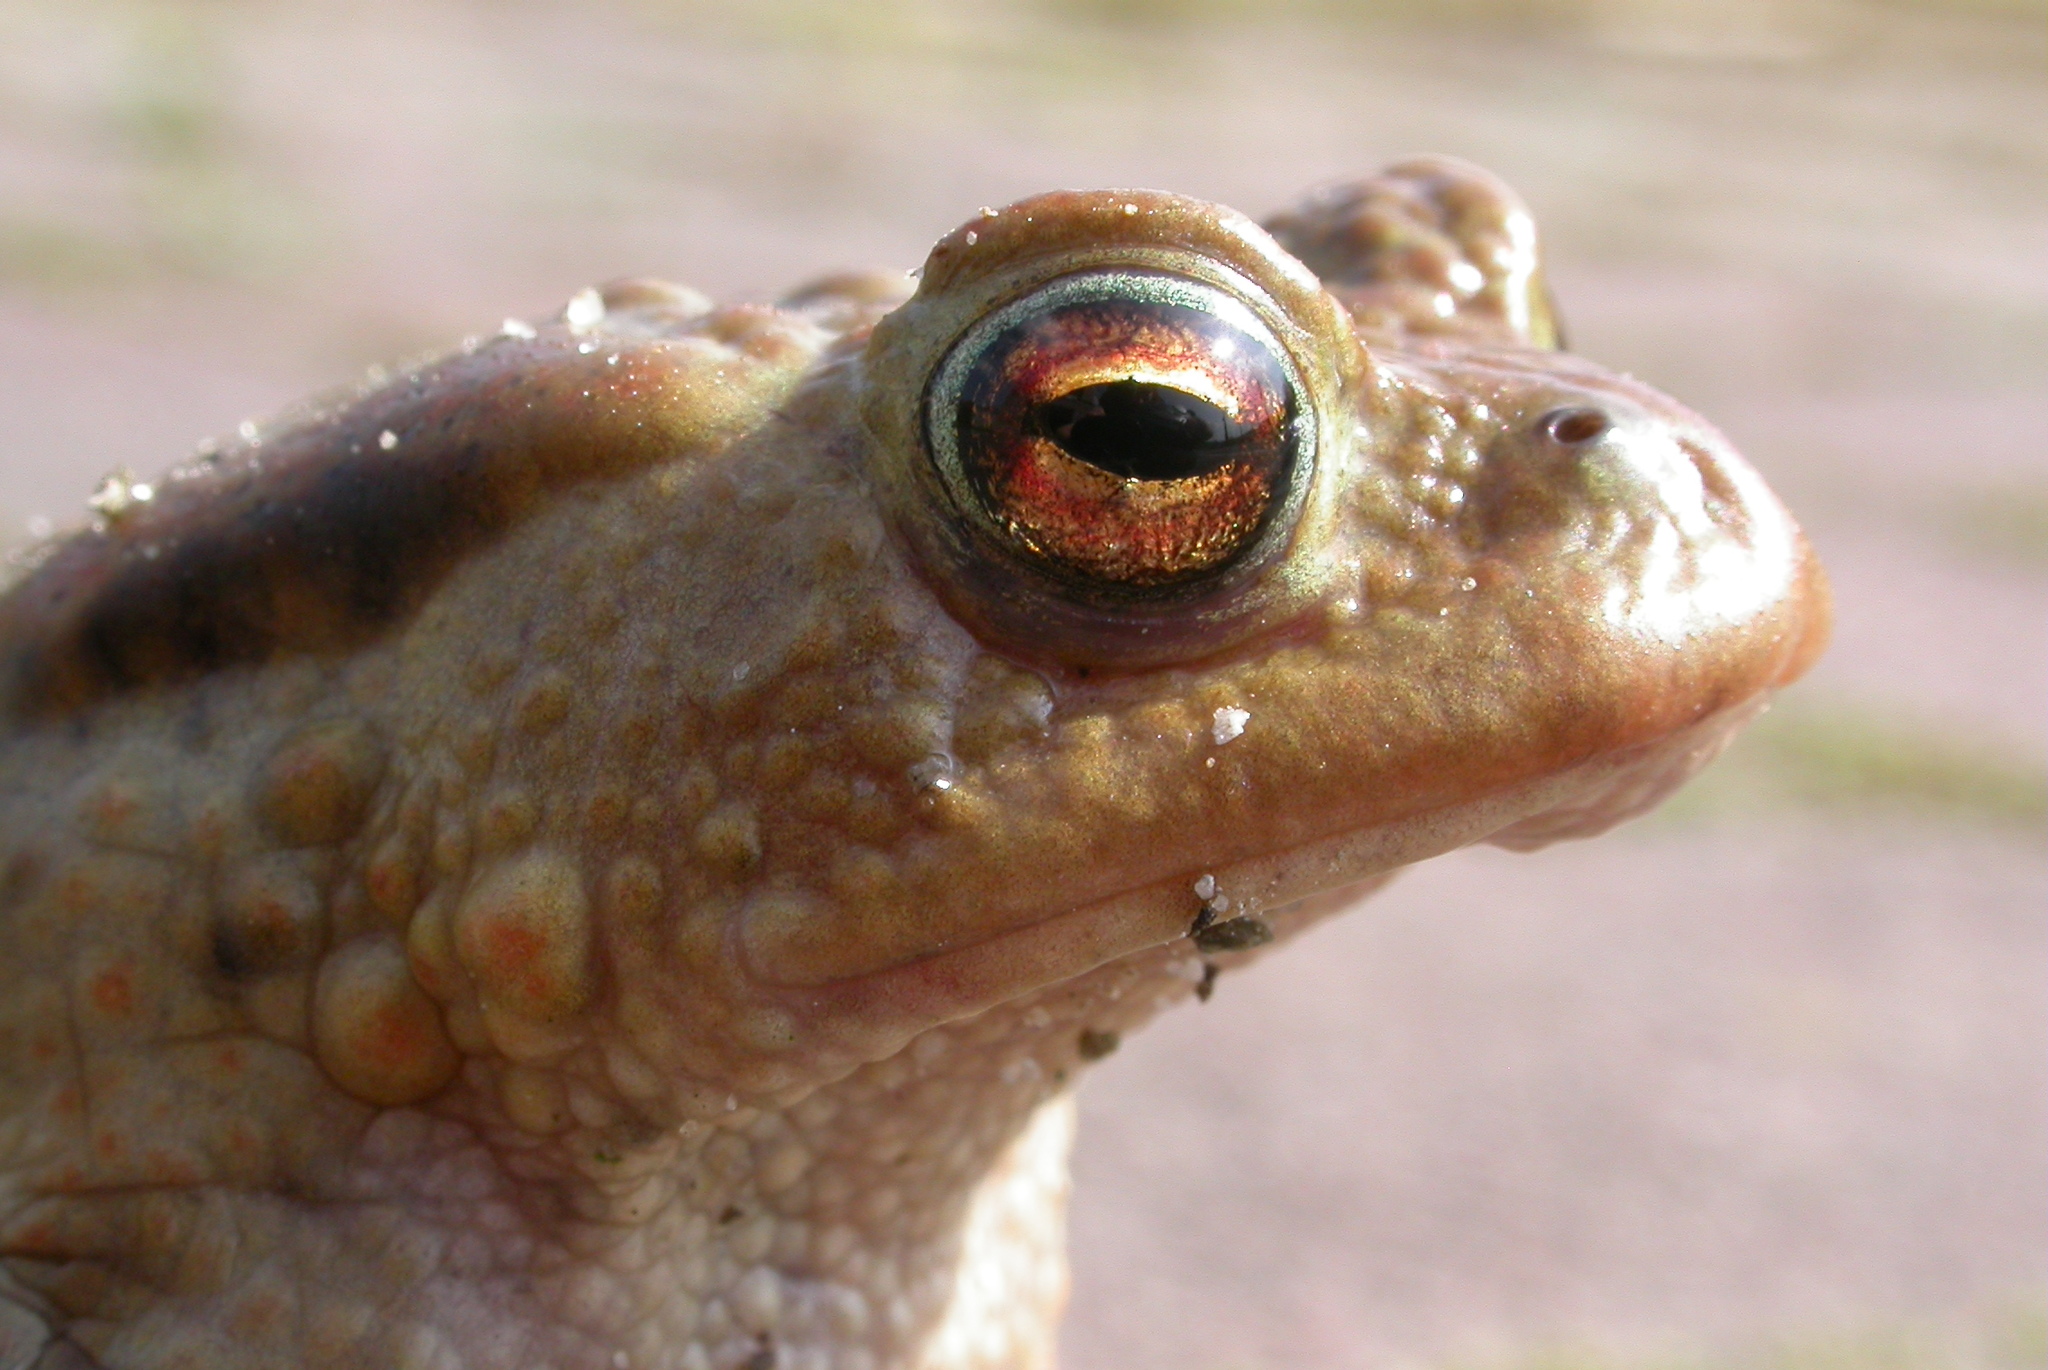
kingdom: Animalia
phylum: Chordata
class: Amphibia
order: Anura
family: Bufonidae
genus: Bufo
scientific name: Bufo bufo
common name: Common toad
